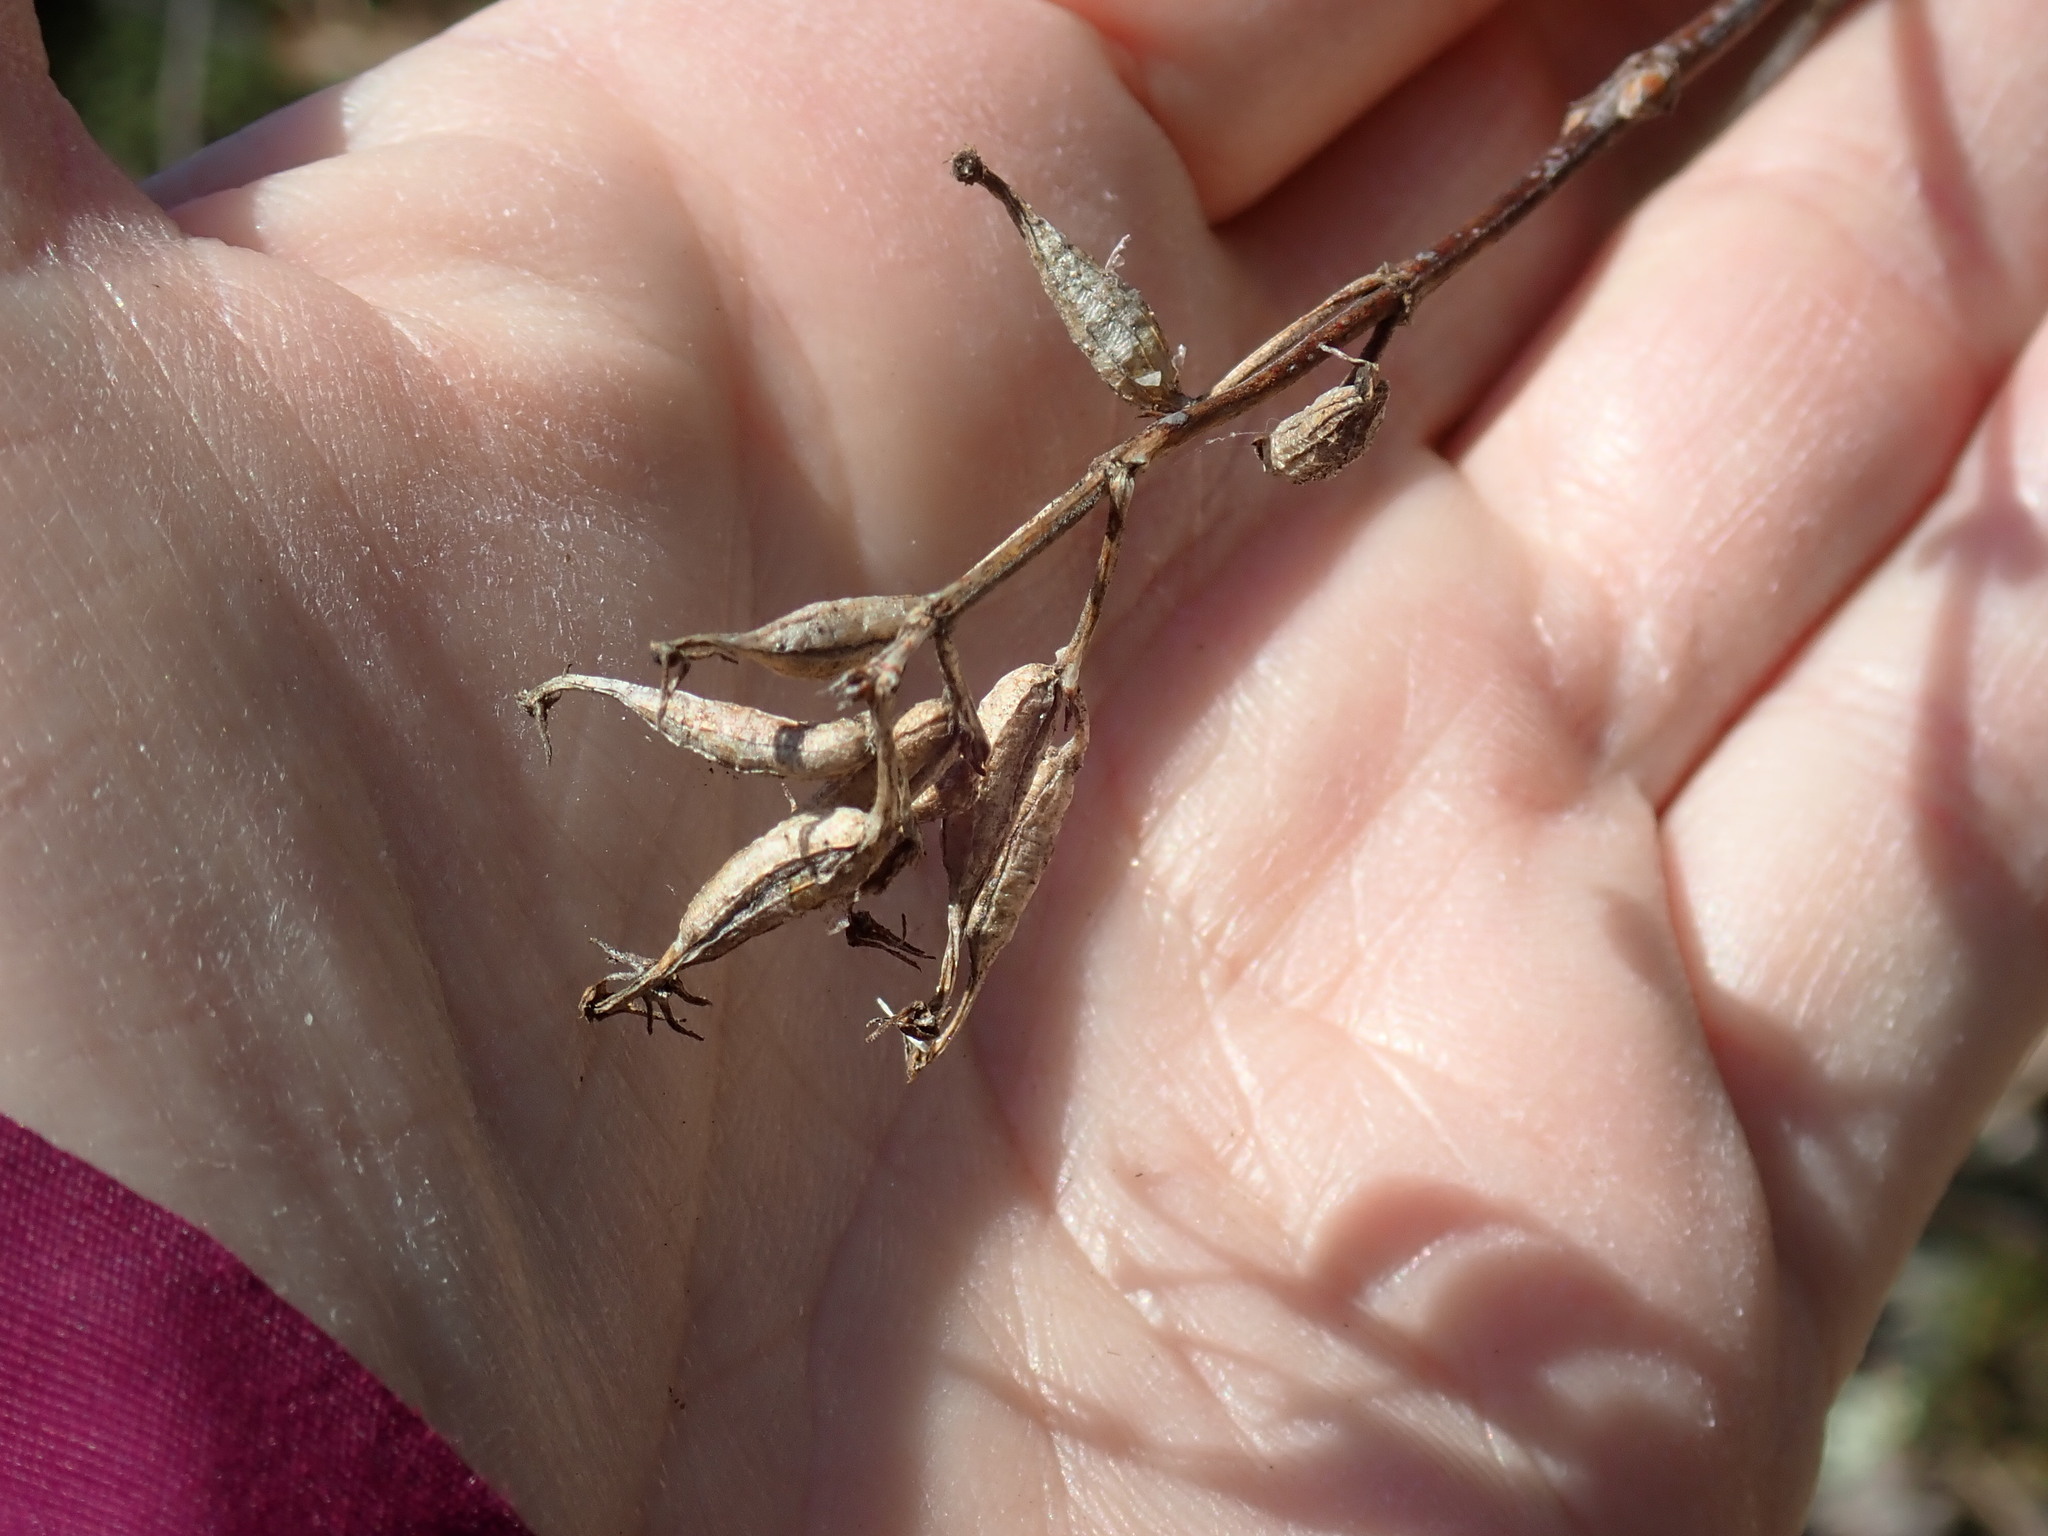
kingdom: Plantae
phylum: Tracheophyta
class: Magnoliopsida
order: Dipsacales
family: Caprifoliaceae
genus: Diervilla
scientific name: Diervilla lonicera
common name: Bush-honeysuckle
